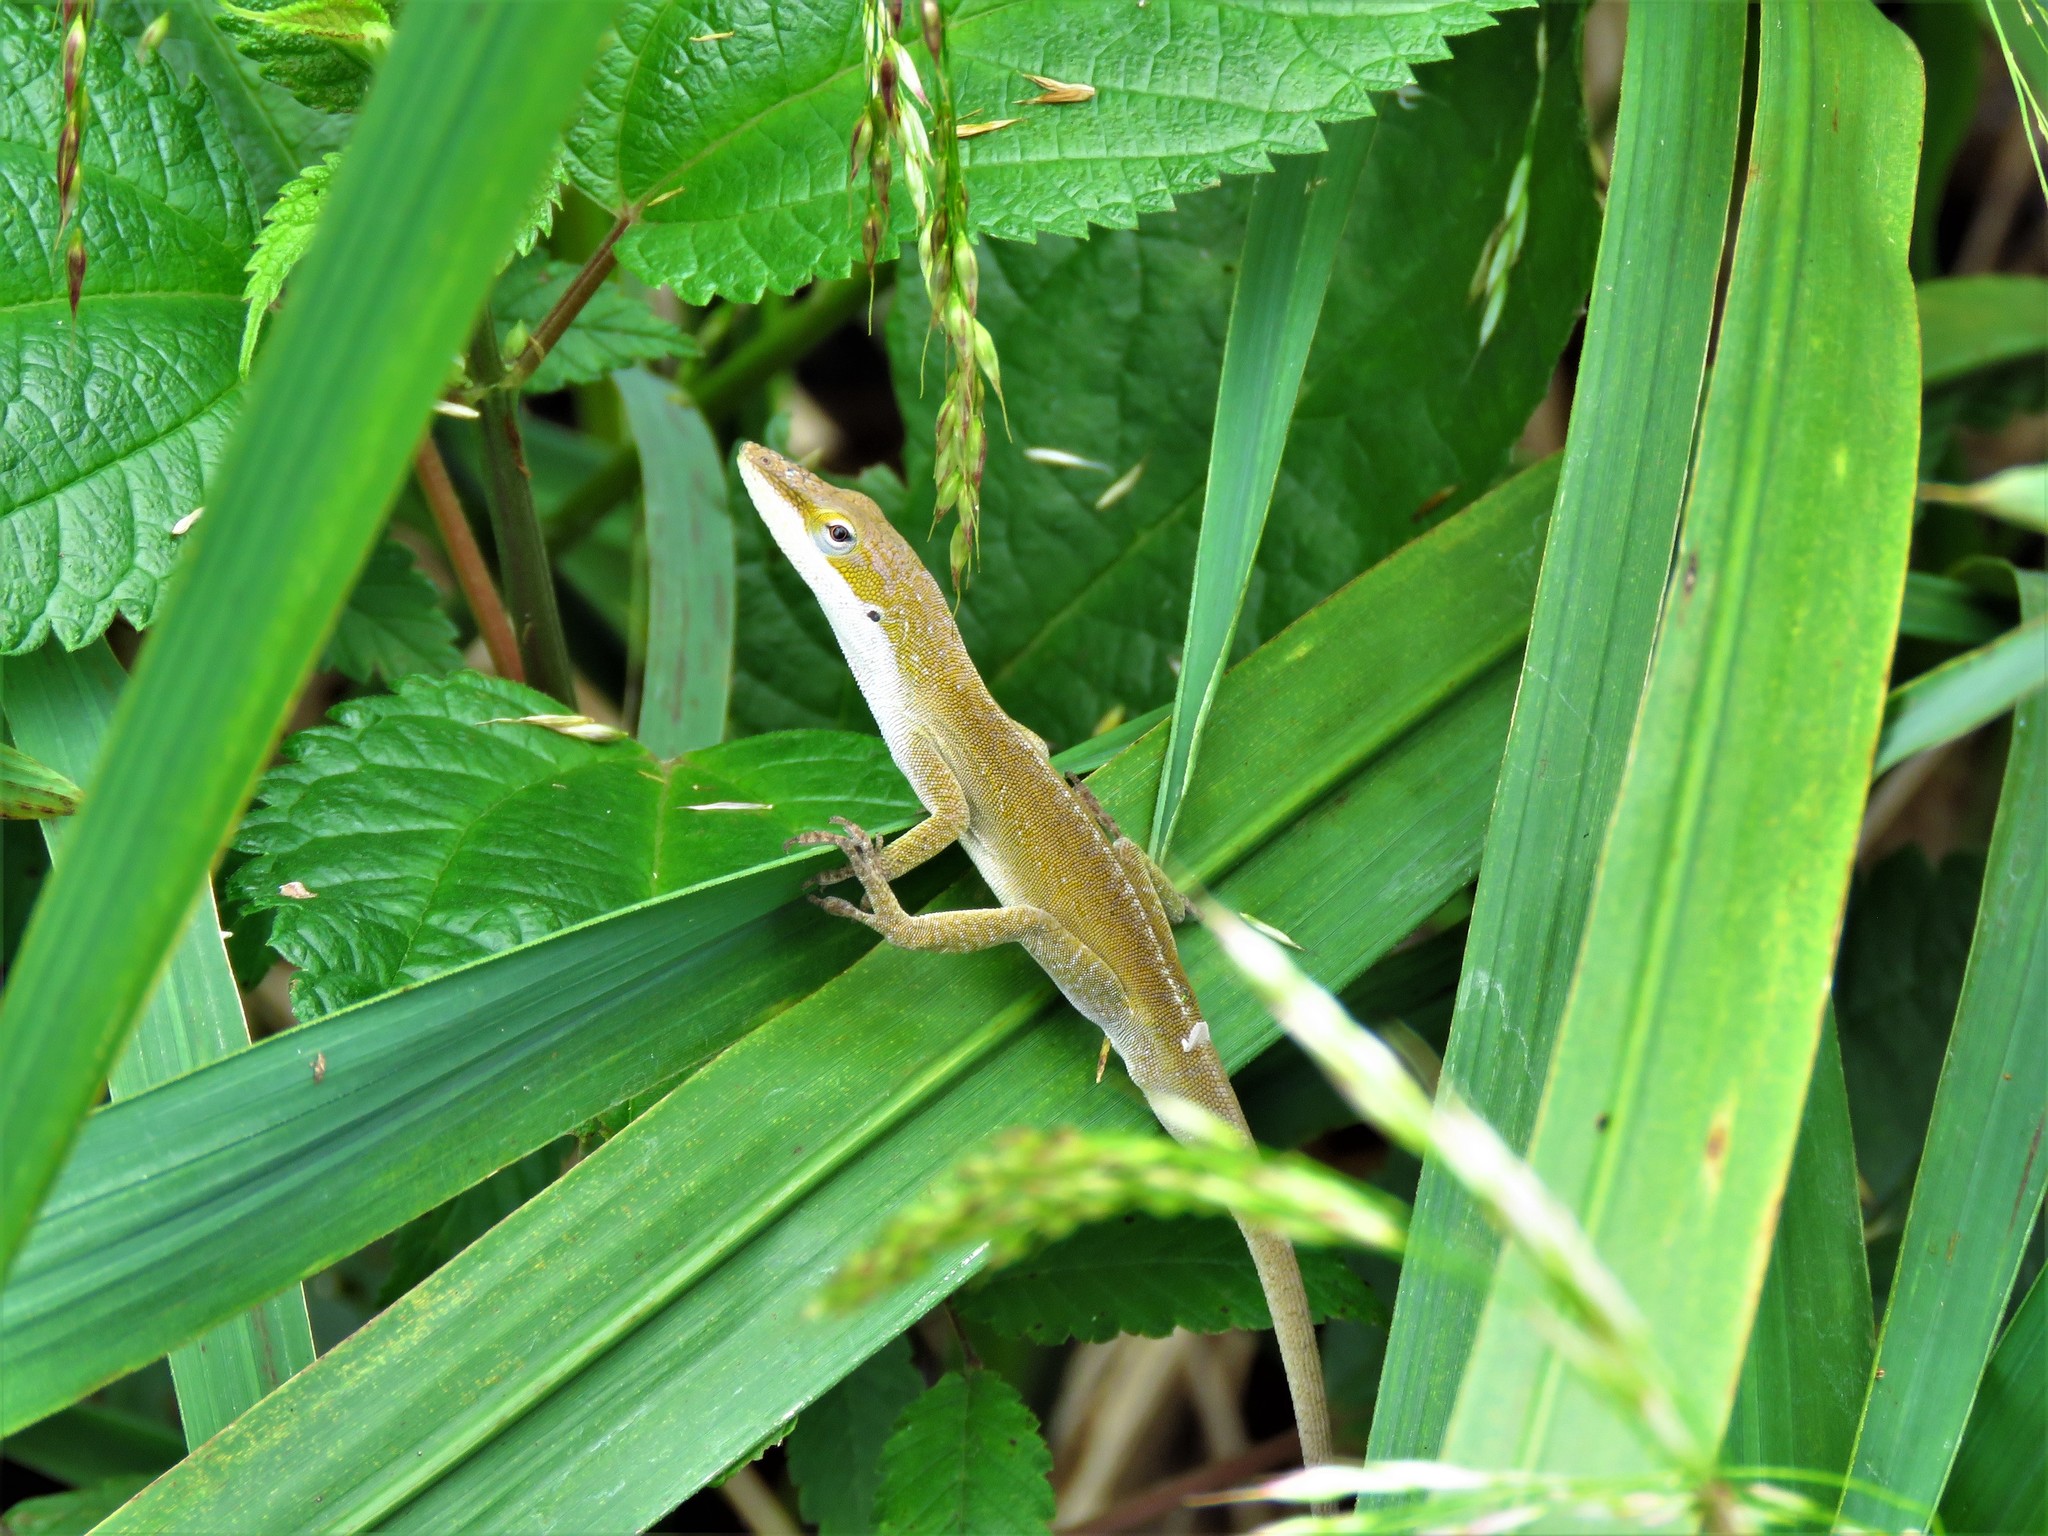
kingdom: Animalia
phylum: Chordata
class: Squamata
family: Dactyloidae
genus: Anolis
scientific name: Anolis carolinensis
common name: Green anole
